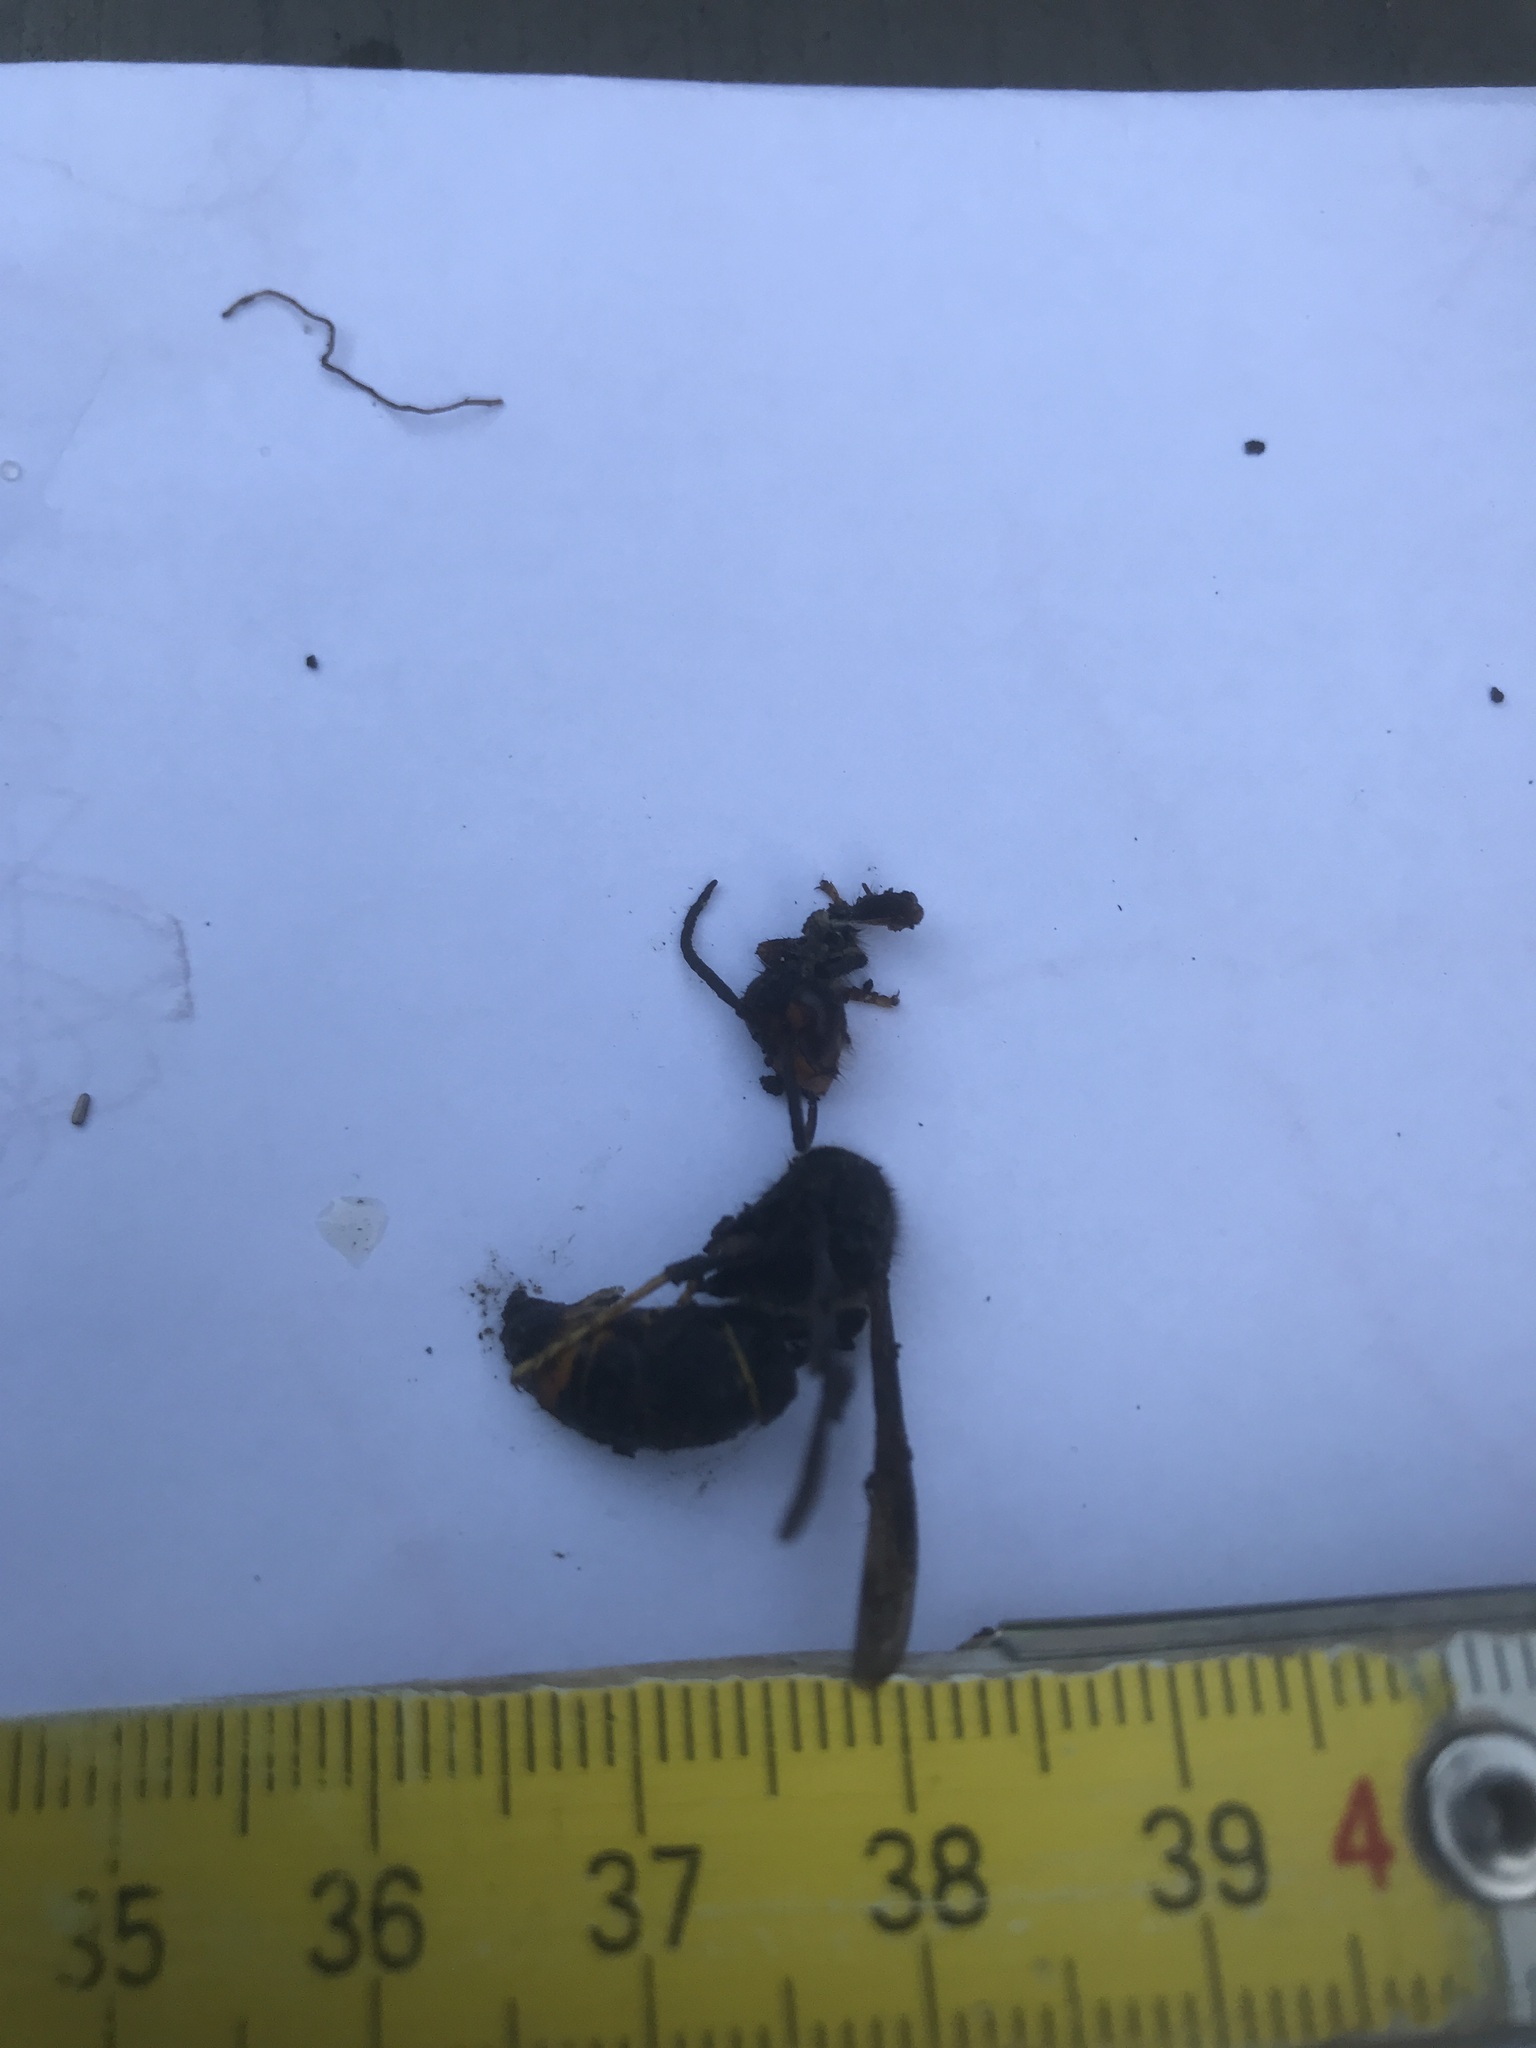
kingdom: Animalia
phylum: Arthropoda
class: Insecta
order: Hymenoptera
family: Vespidae
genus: Vespa
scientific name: Vespa velutina
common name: Asian hornet
